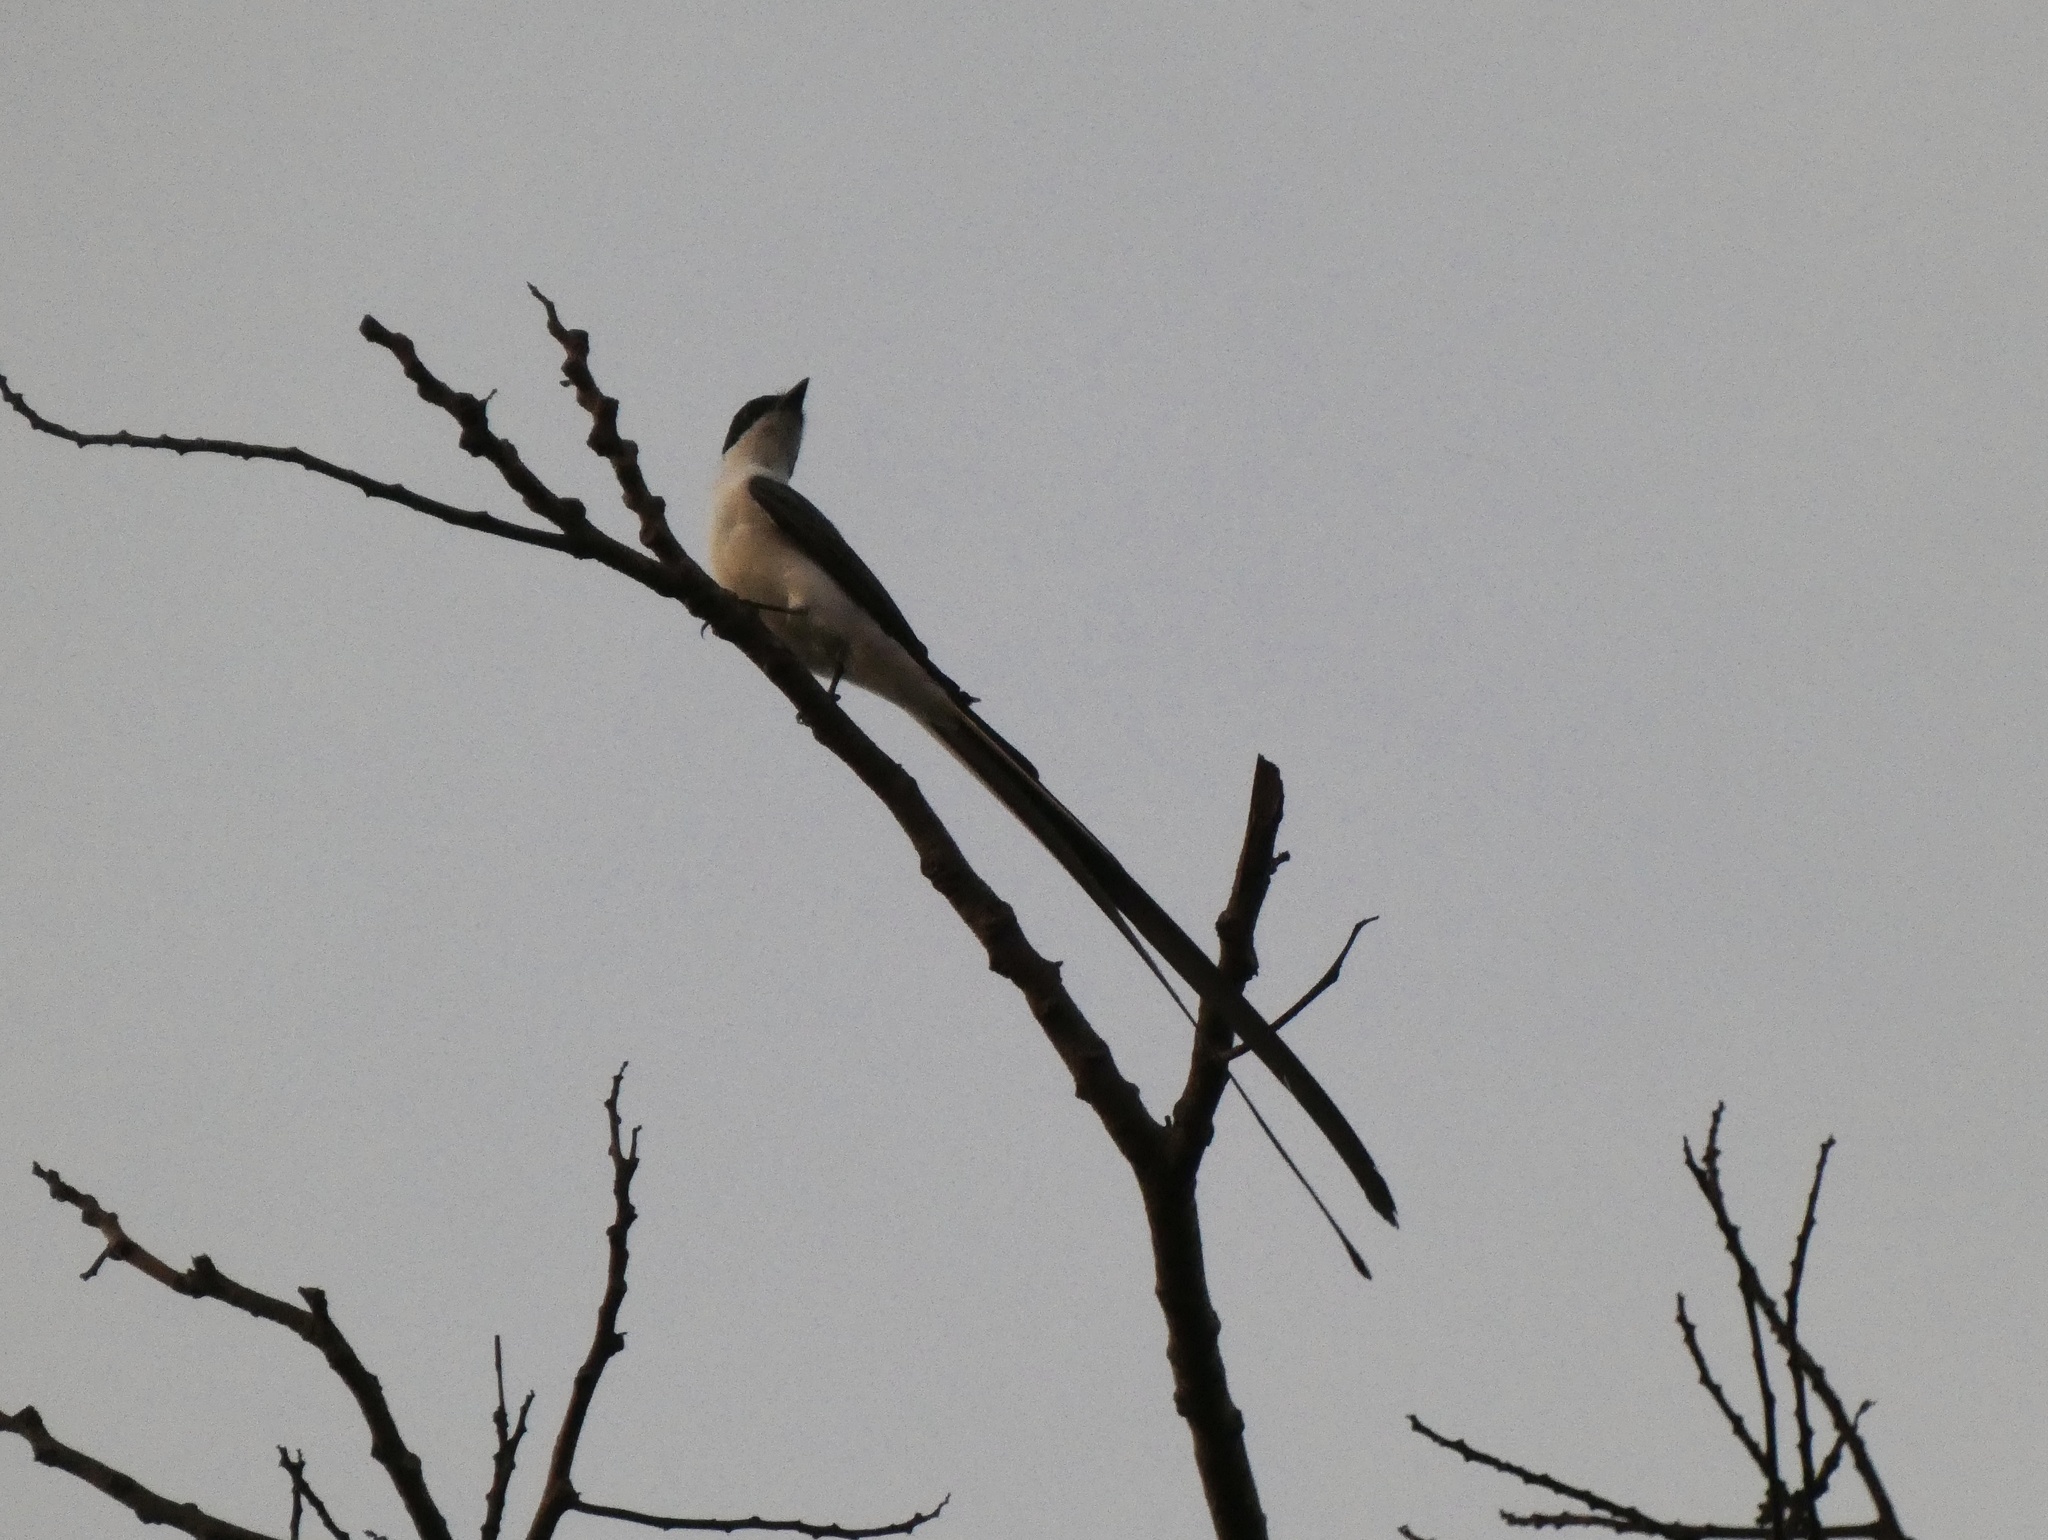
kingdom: Animalia
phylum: Chordata
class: Aves
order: Passeriformes
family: Tyrannidae
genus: Tyrannus
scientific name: Tyrannus savana
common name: Fork-tailed flycatcher
